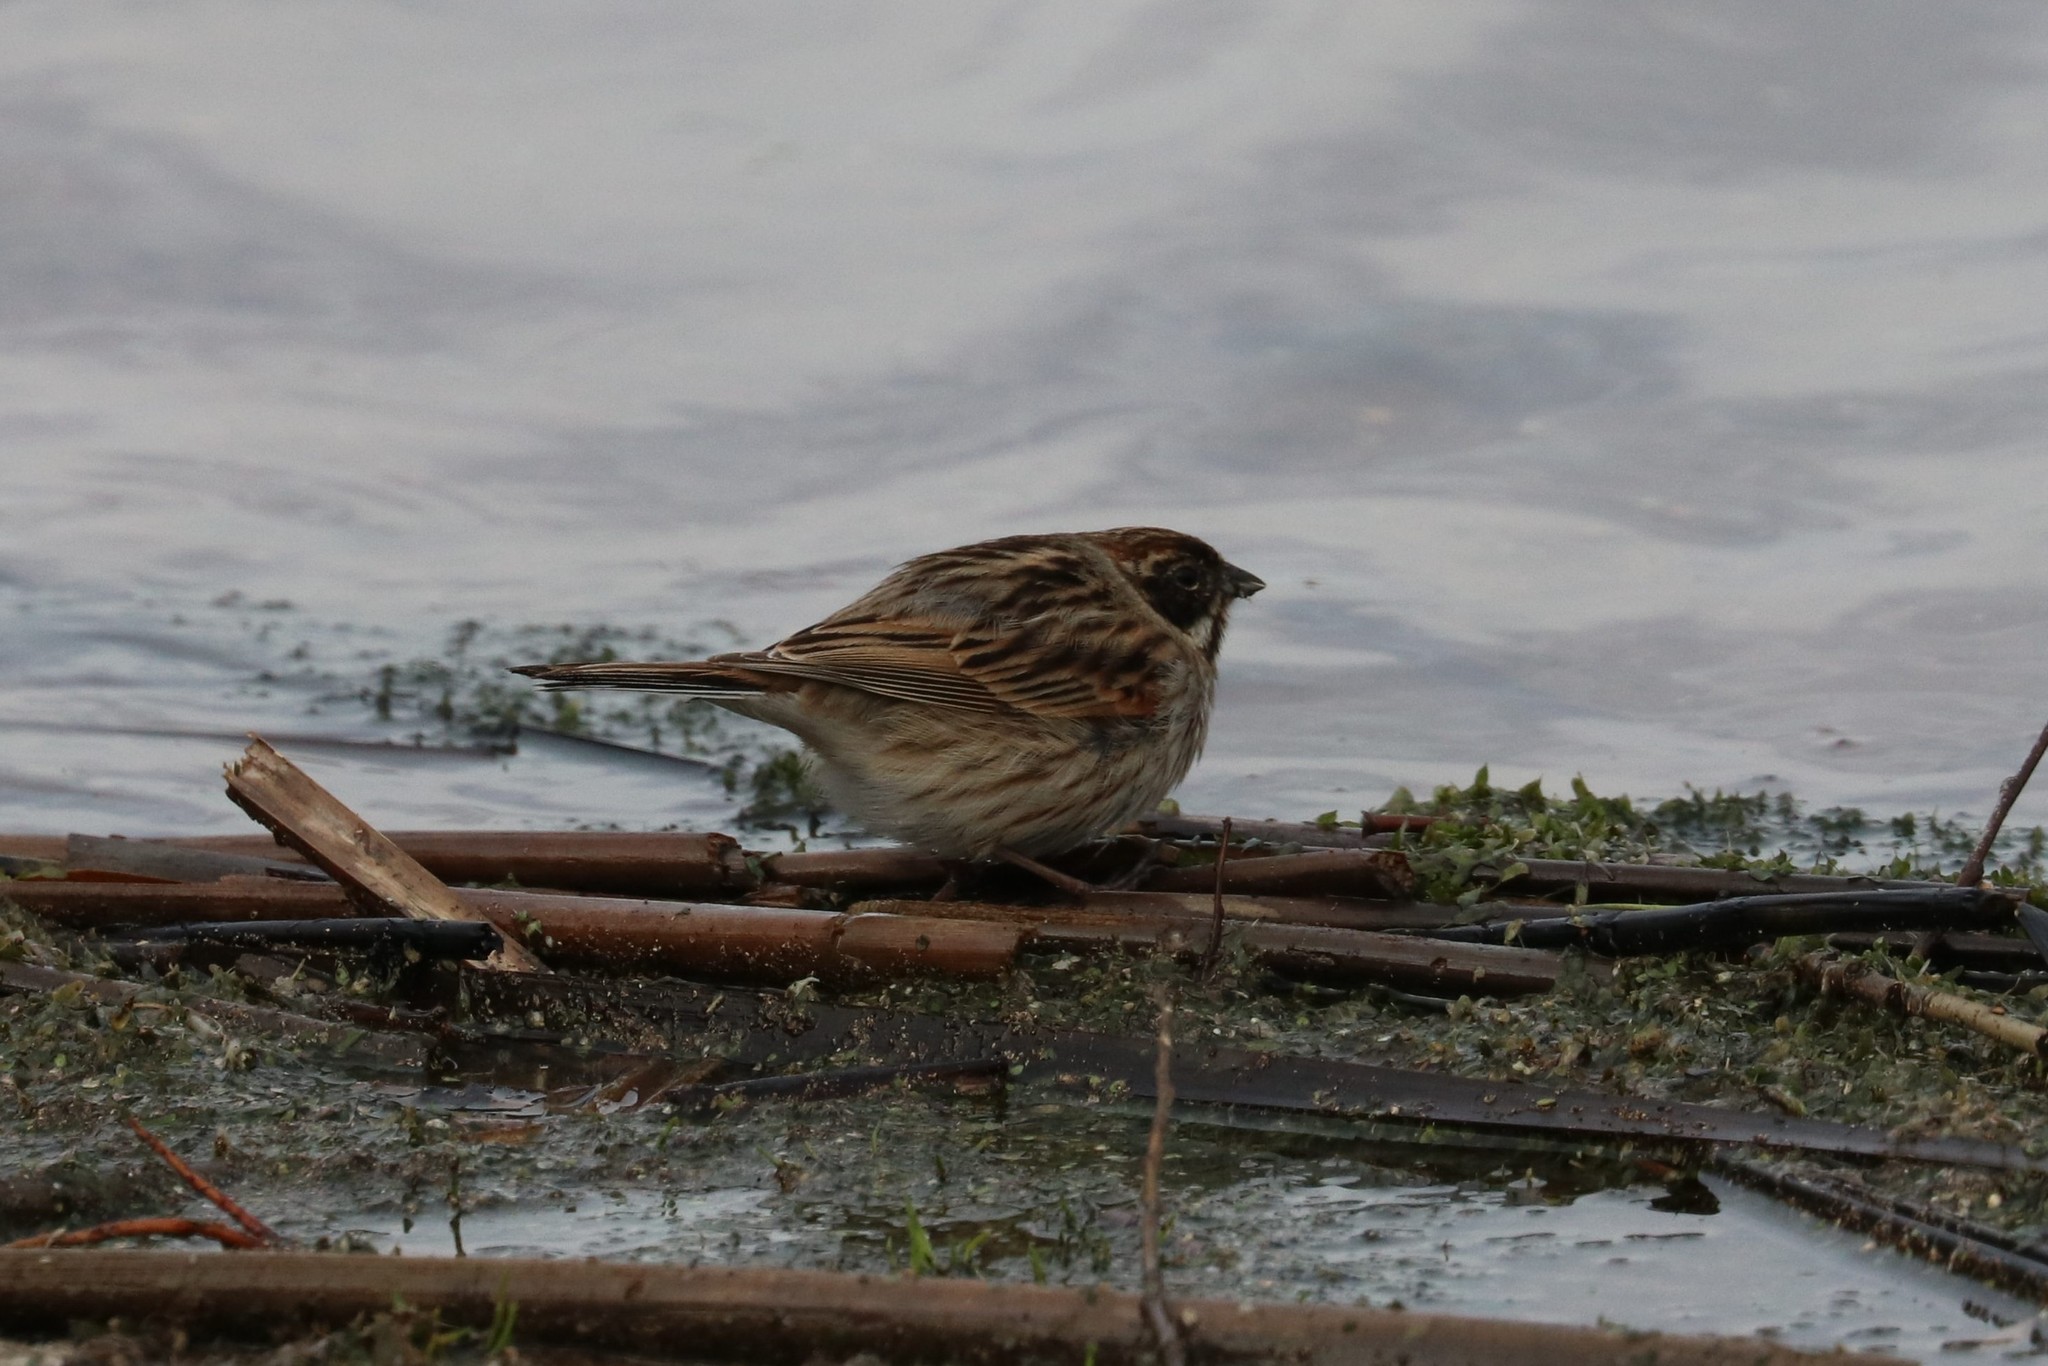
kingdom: Animalia
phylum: Chordata
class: Aves
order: Passeriformes
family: Emberizidae
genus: Emberiza
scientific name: Emberiza schoeniclus
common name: Reed bunting
